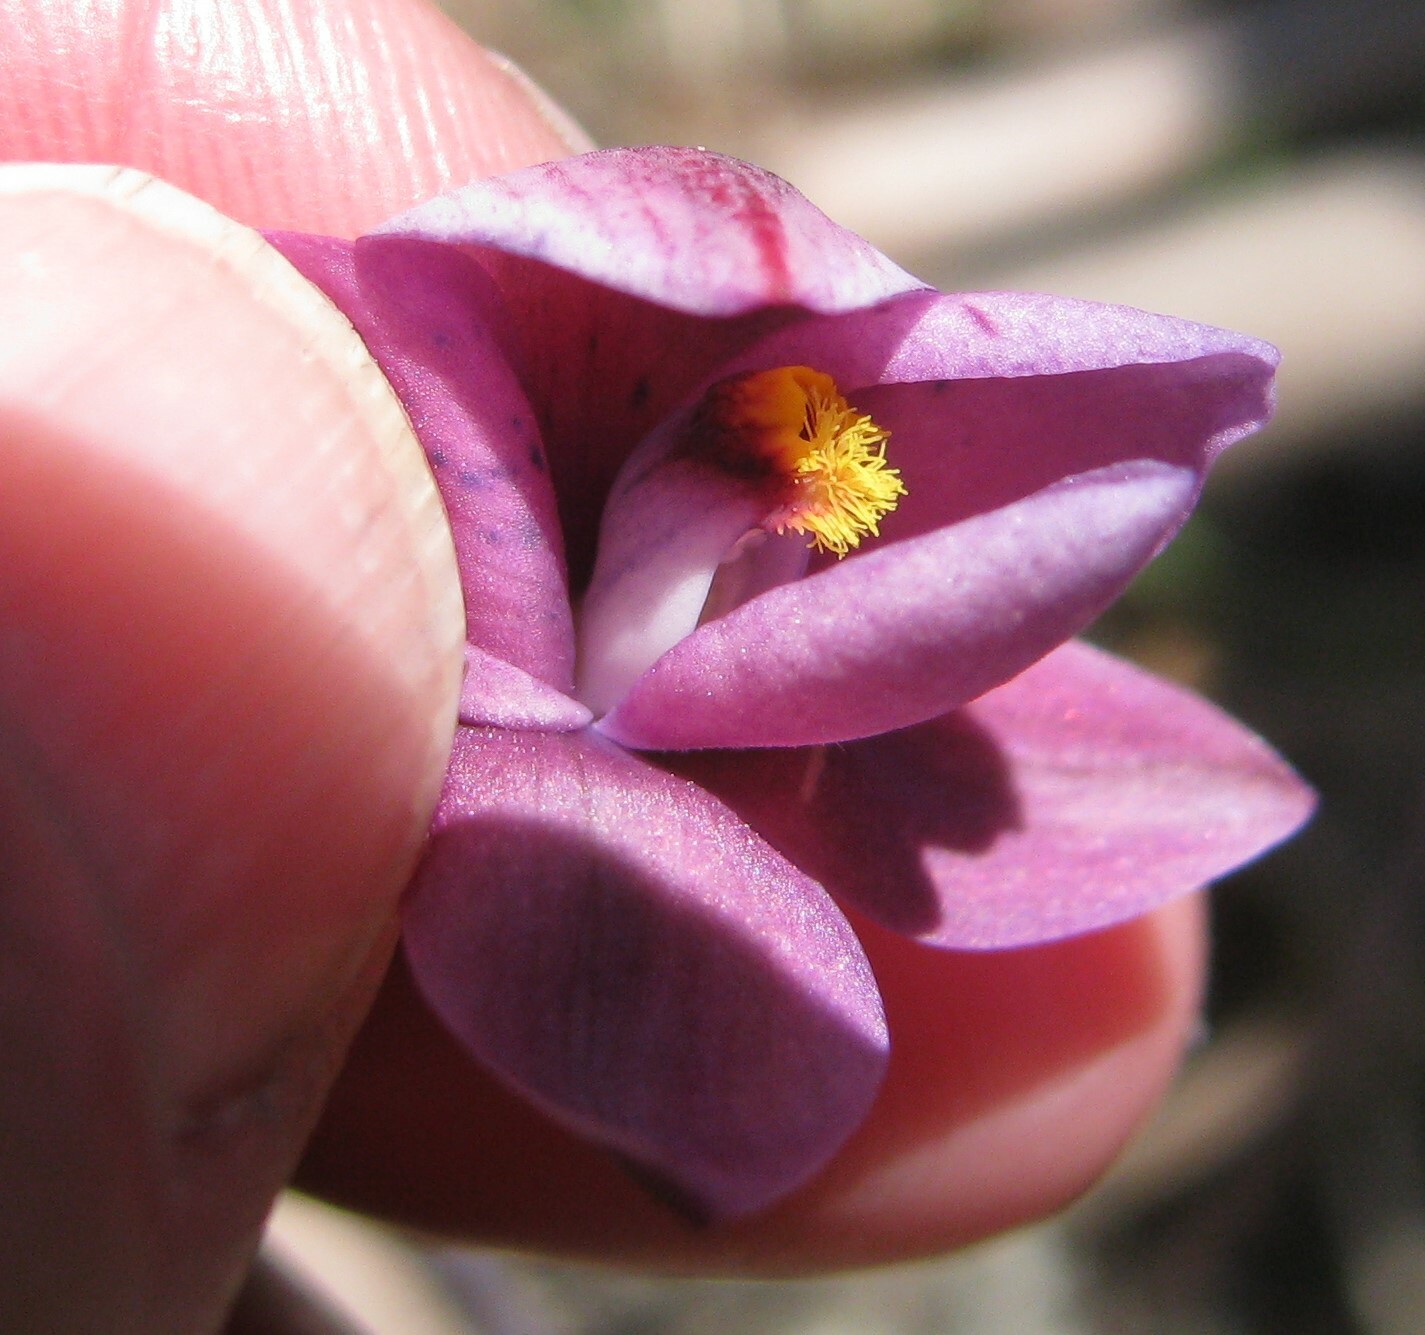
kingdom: Plantae
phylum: Tracheophyta
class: Liliopsida
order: Asparagales
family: Orchidaceae
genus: Thelymitra
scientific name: Thelymitra irregularis
